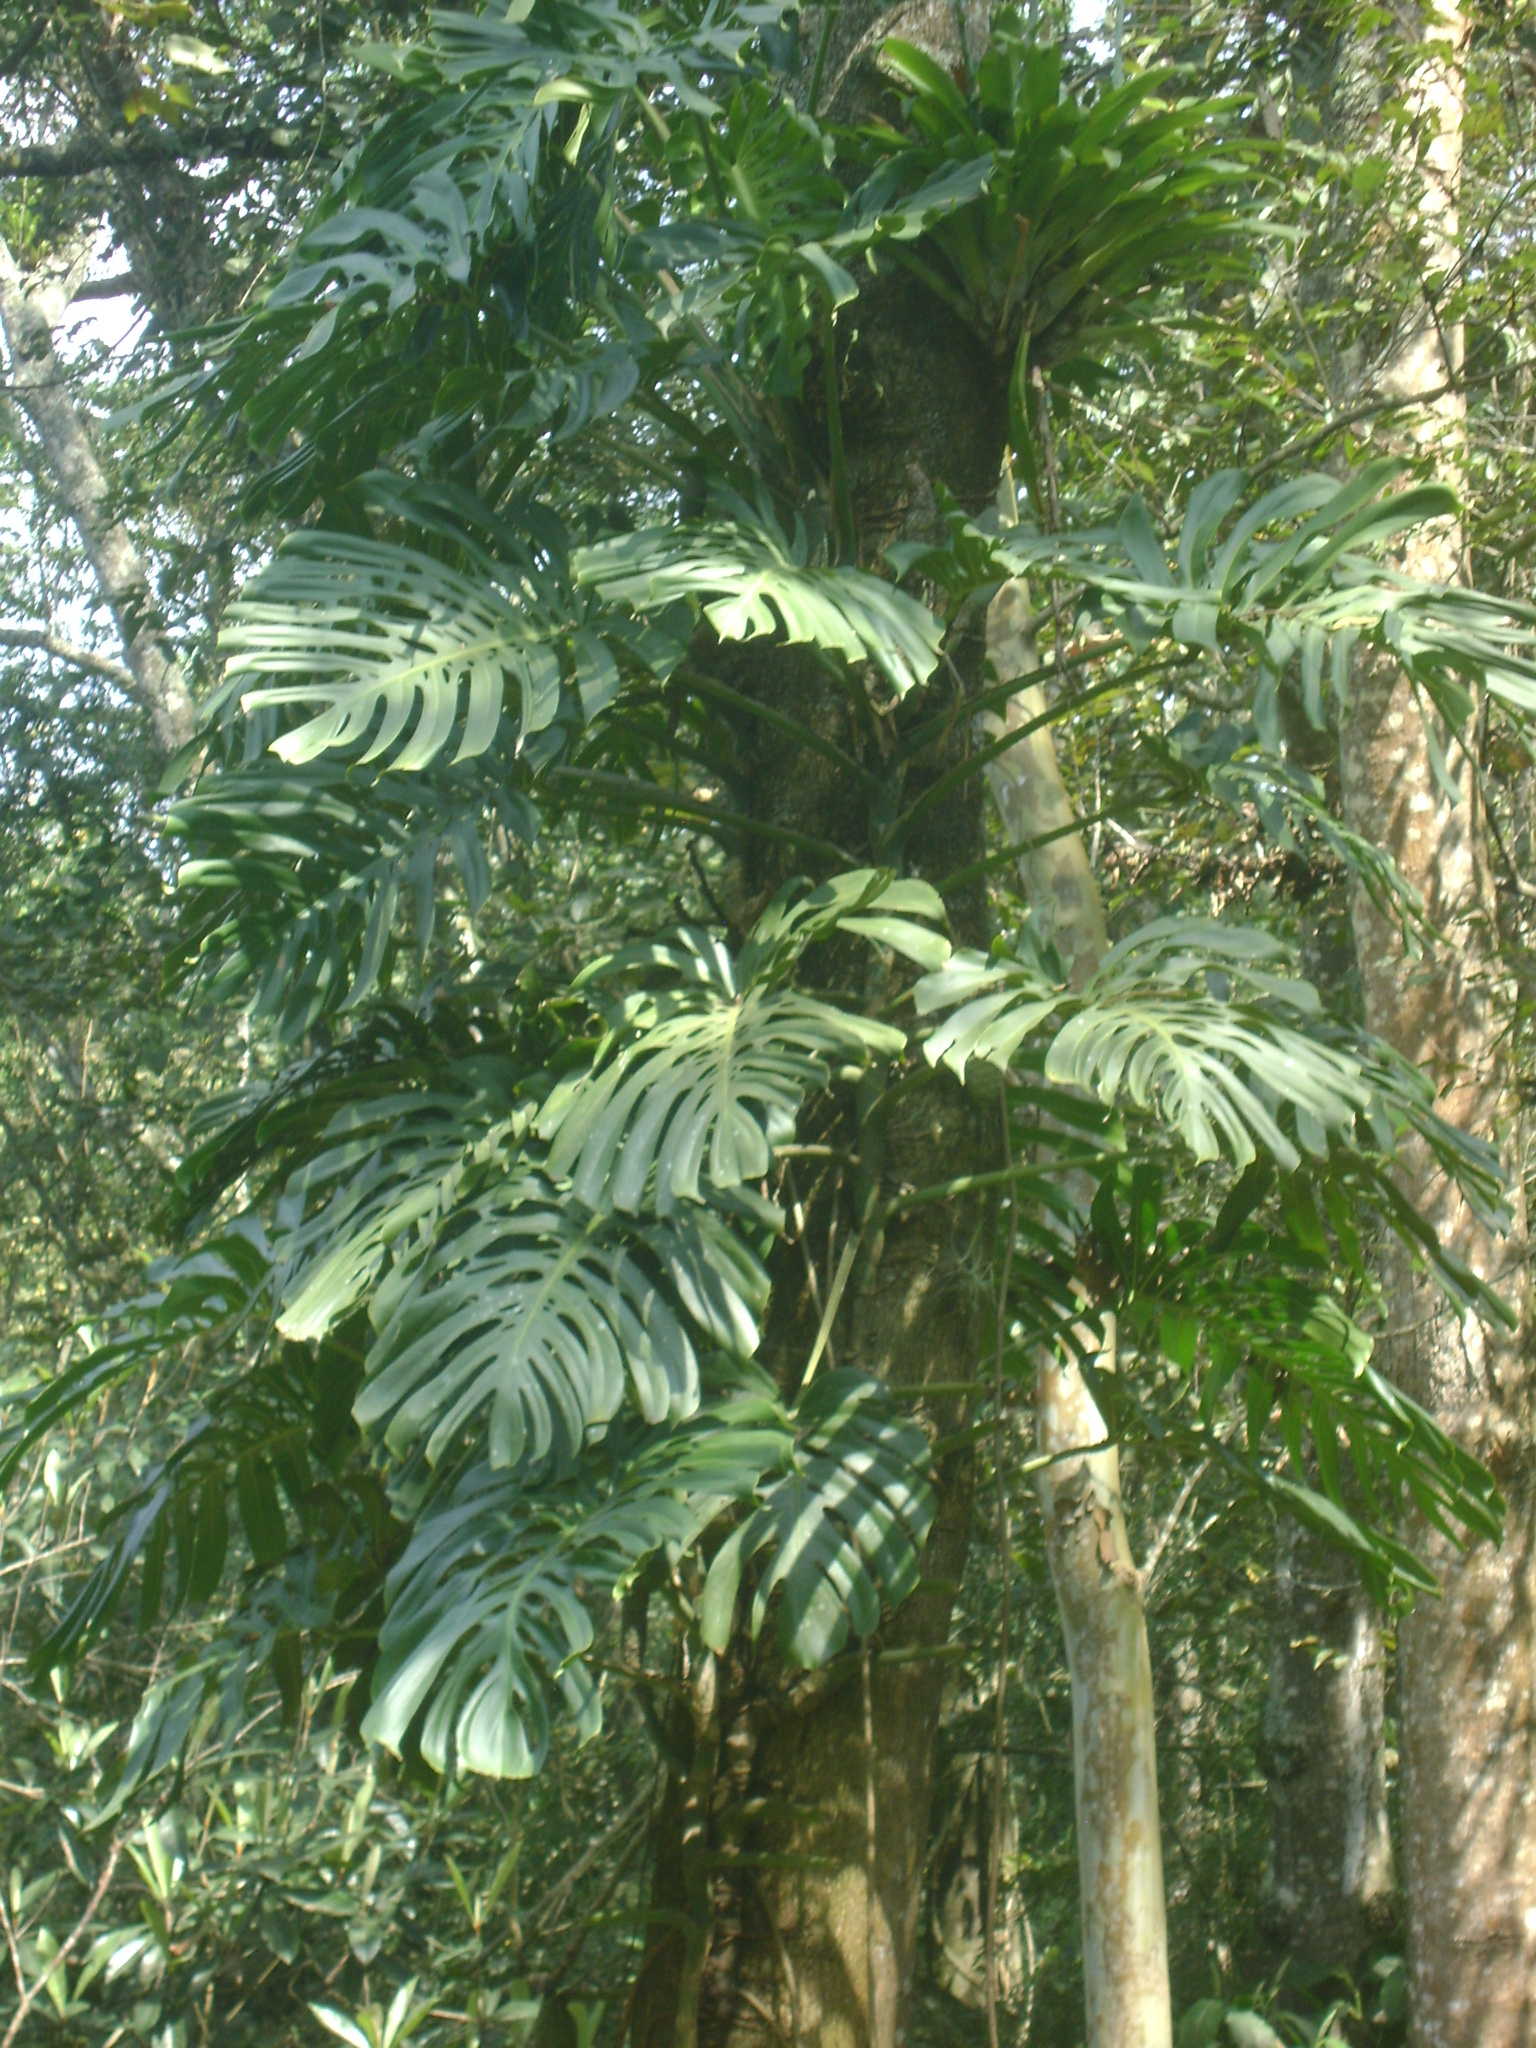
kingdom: Plantae
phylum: Tracheophyta
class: Liliopsida
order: Alismatales
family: Araceae
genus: Monstera
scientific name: Monstera deliciosa
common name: Cut-leaf-philodendron
